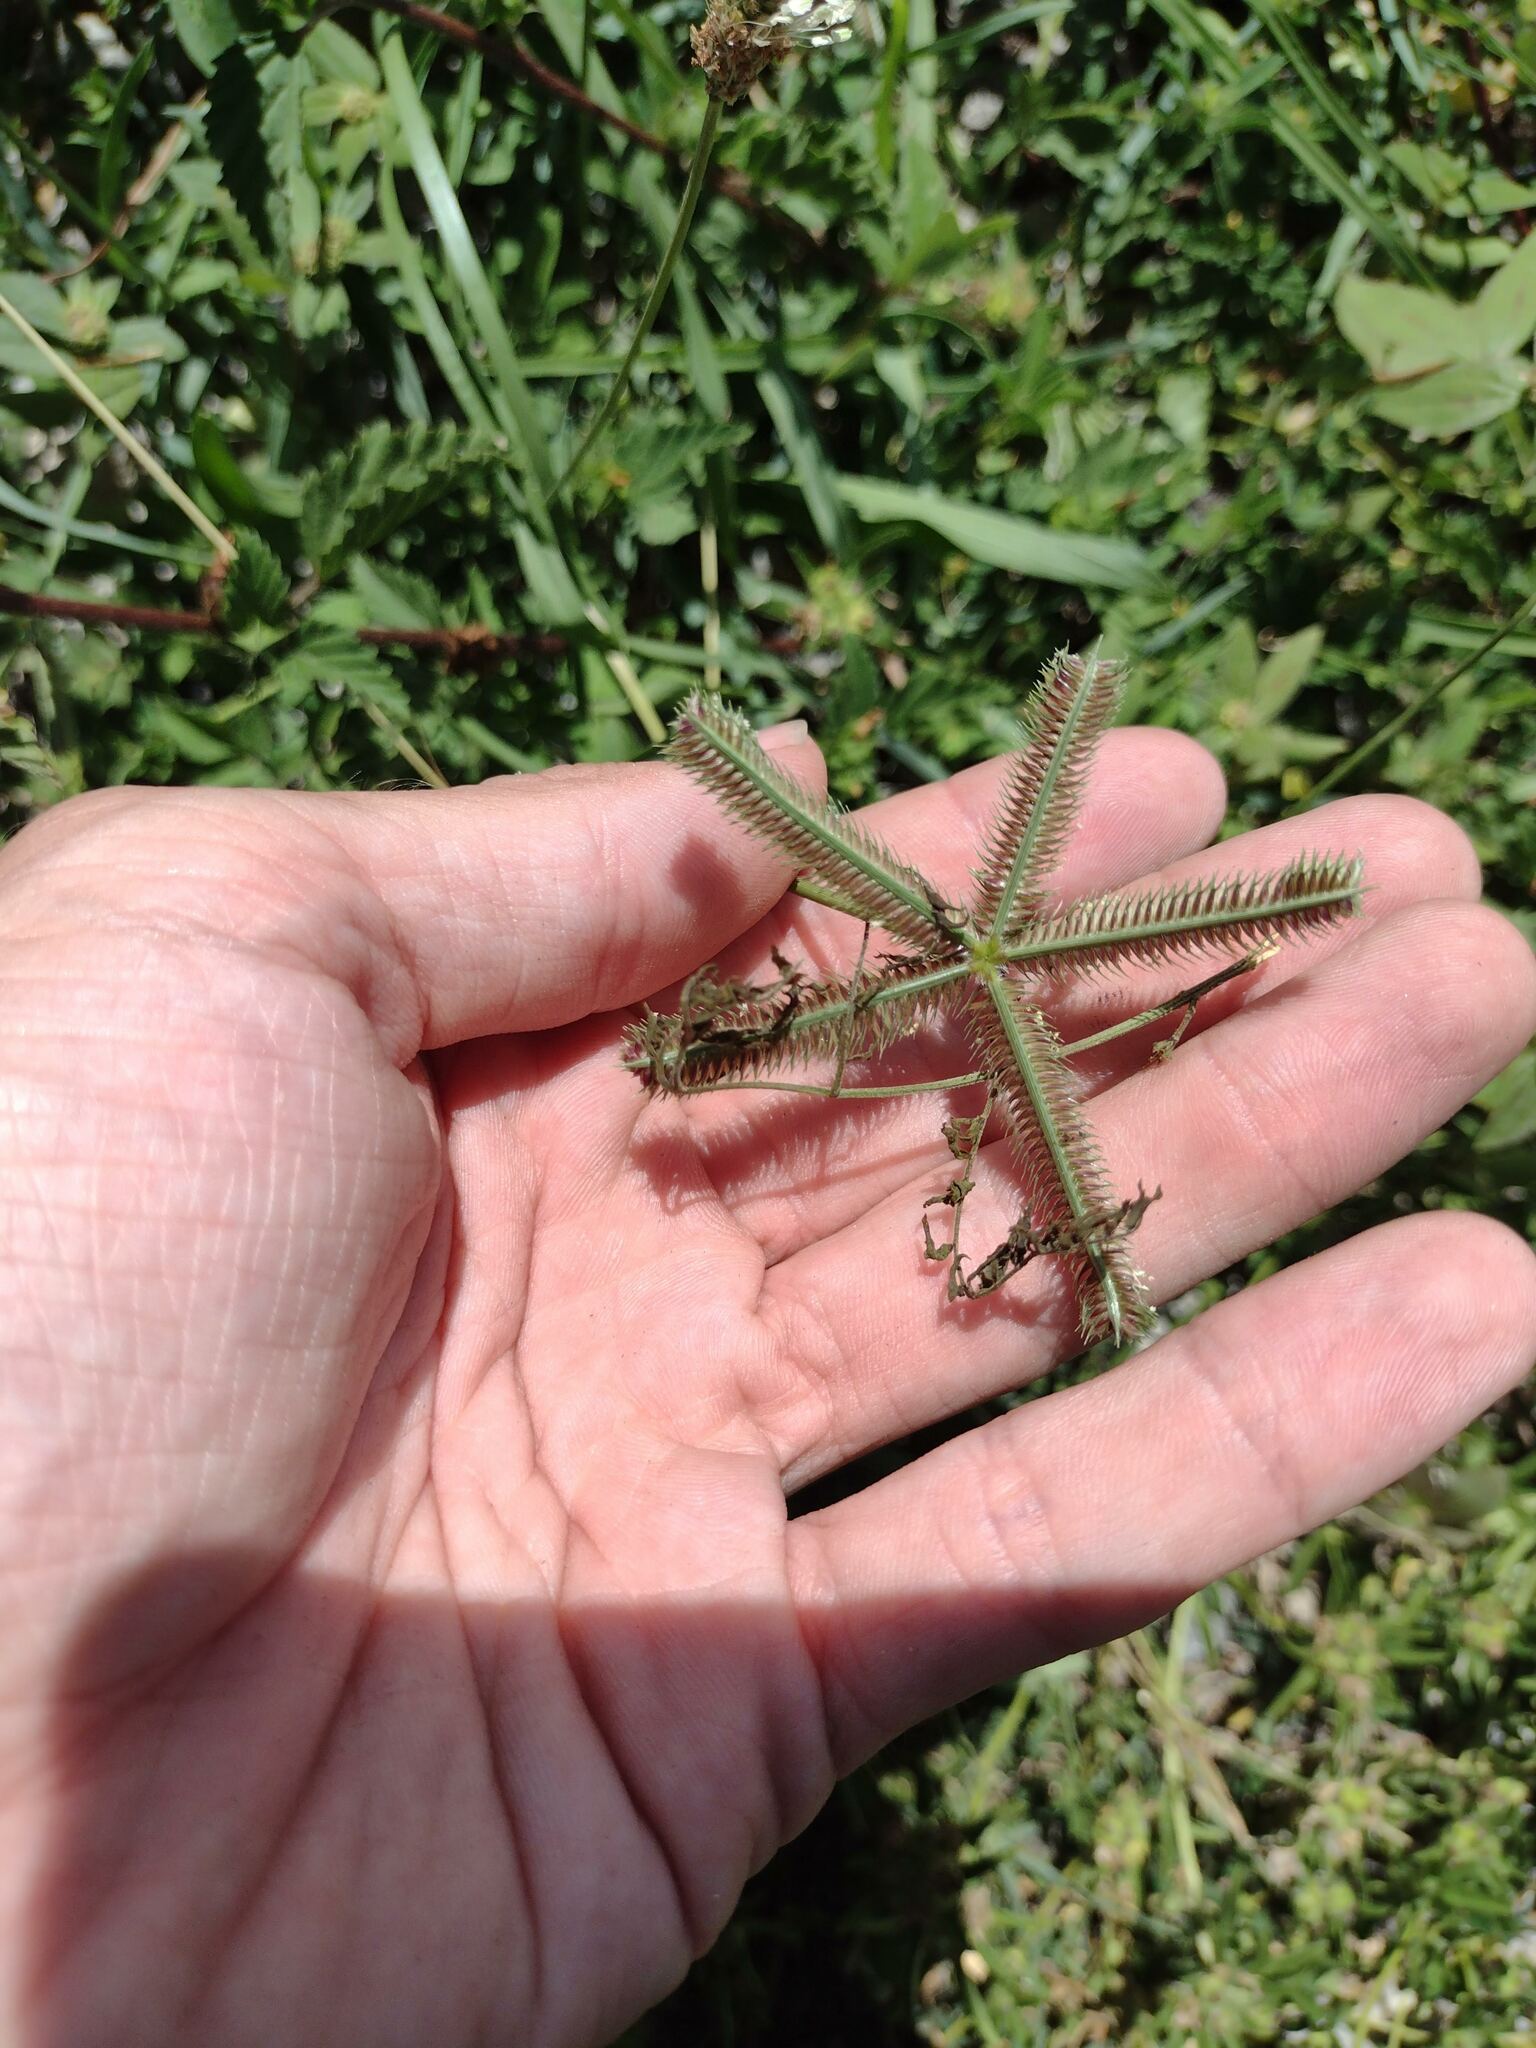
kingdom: Plantae
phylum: Tracheophyta
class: Liliopsida
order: Poales
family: Poaceae
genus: Dactyloctenium
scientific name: Dactyloctenium aegyptium
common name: Egyptian grass
